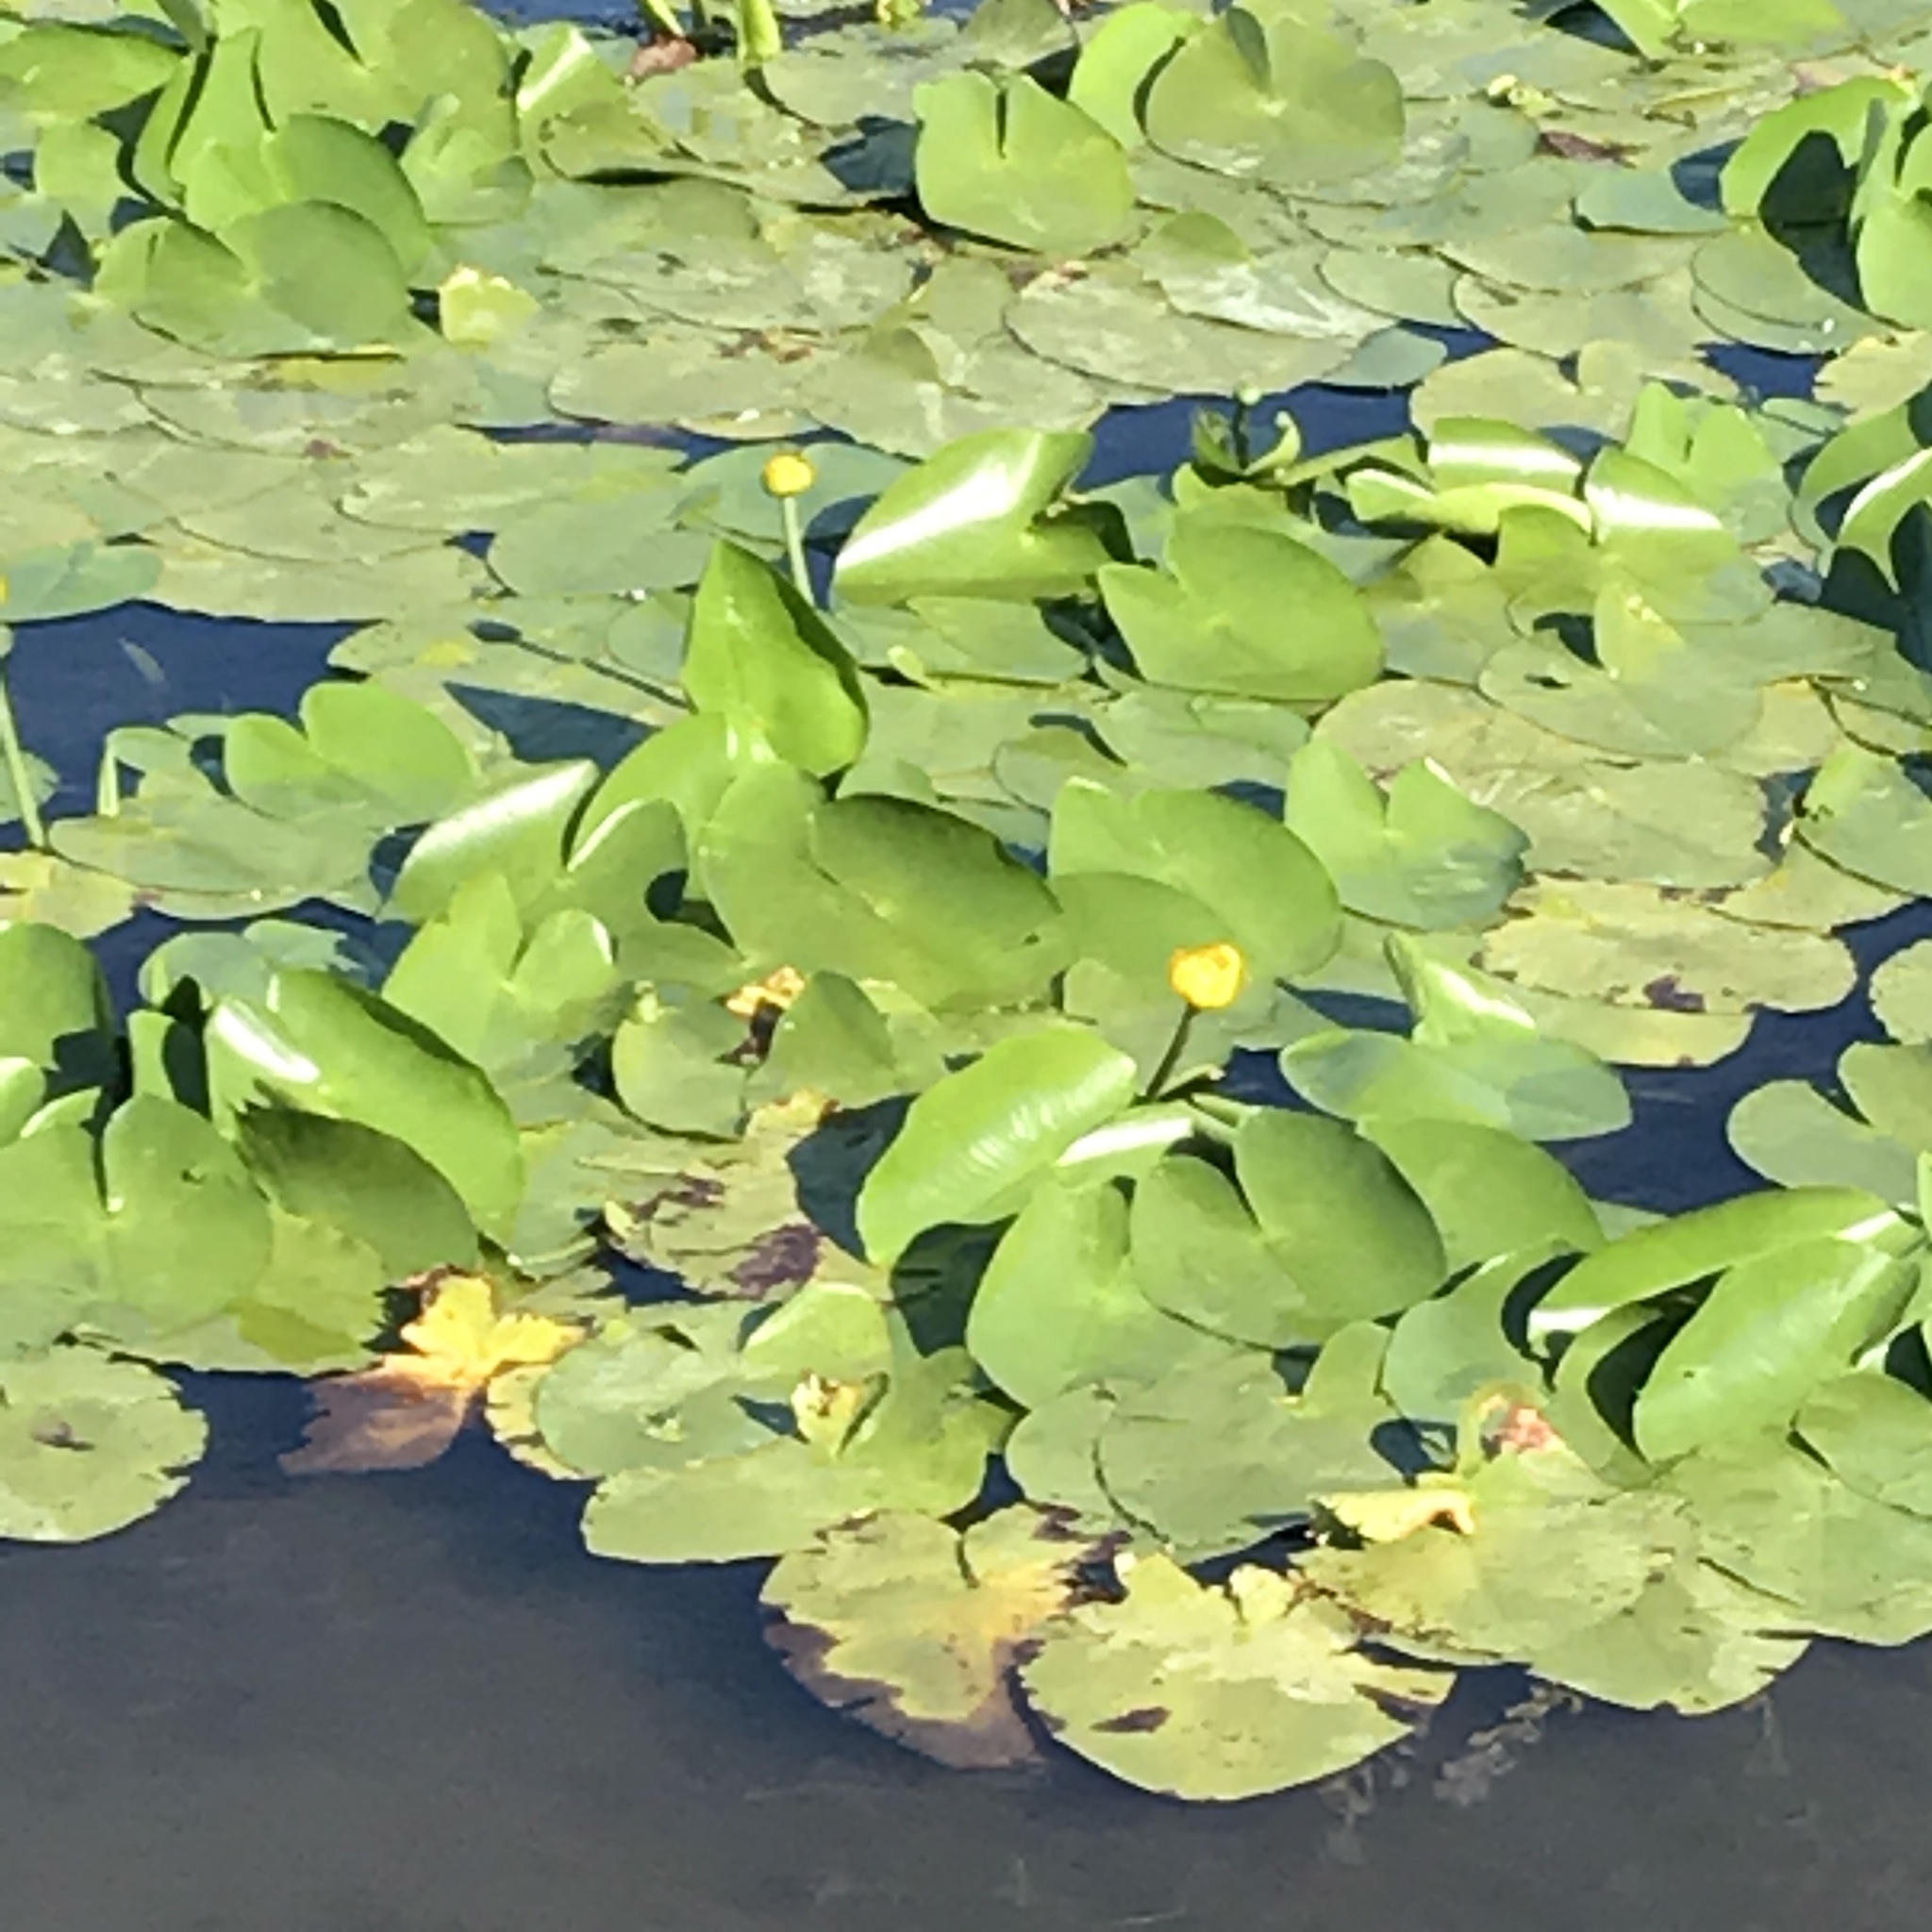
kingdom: Plantae
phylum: Tracheophyta
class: Magnoliopsida
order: Nymphaeales
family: Nymphaeaceae
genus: Nuphar
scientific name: Nuphar lutea
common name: Yellow water-lily
